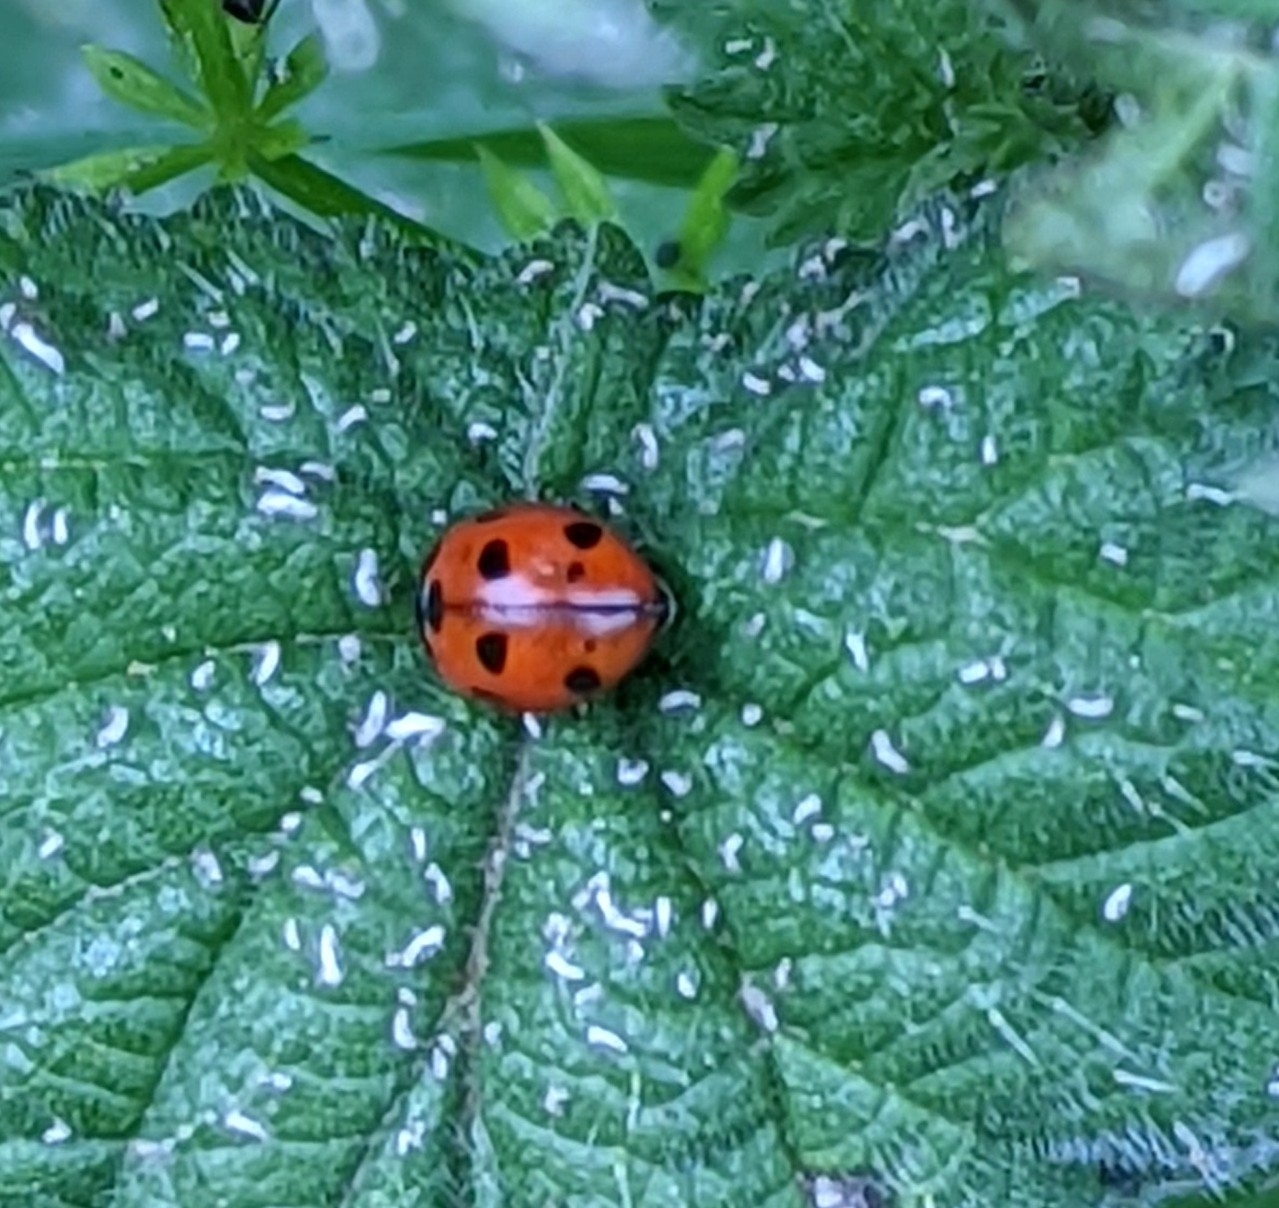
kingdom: Animalia
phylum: Arthropoda
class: Insecta
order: Coleoptera
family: Coccinellidae
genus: Coccinella
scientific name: Coccinella septempunctata
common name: Sevenspotted lady beetle
